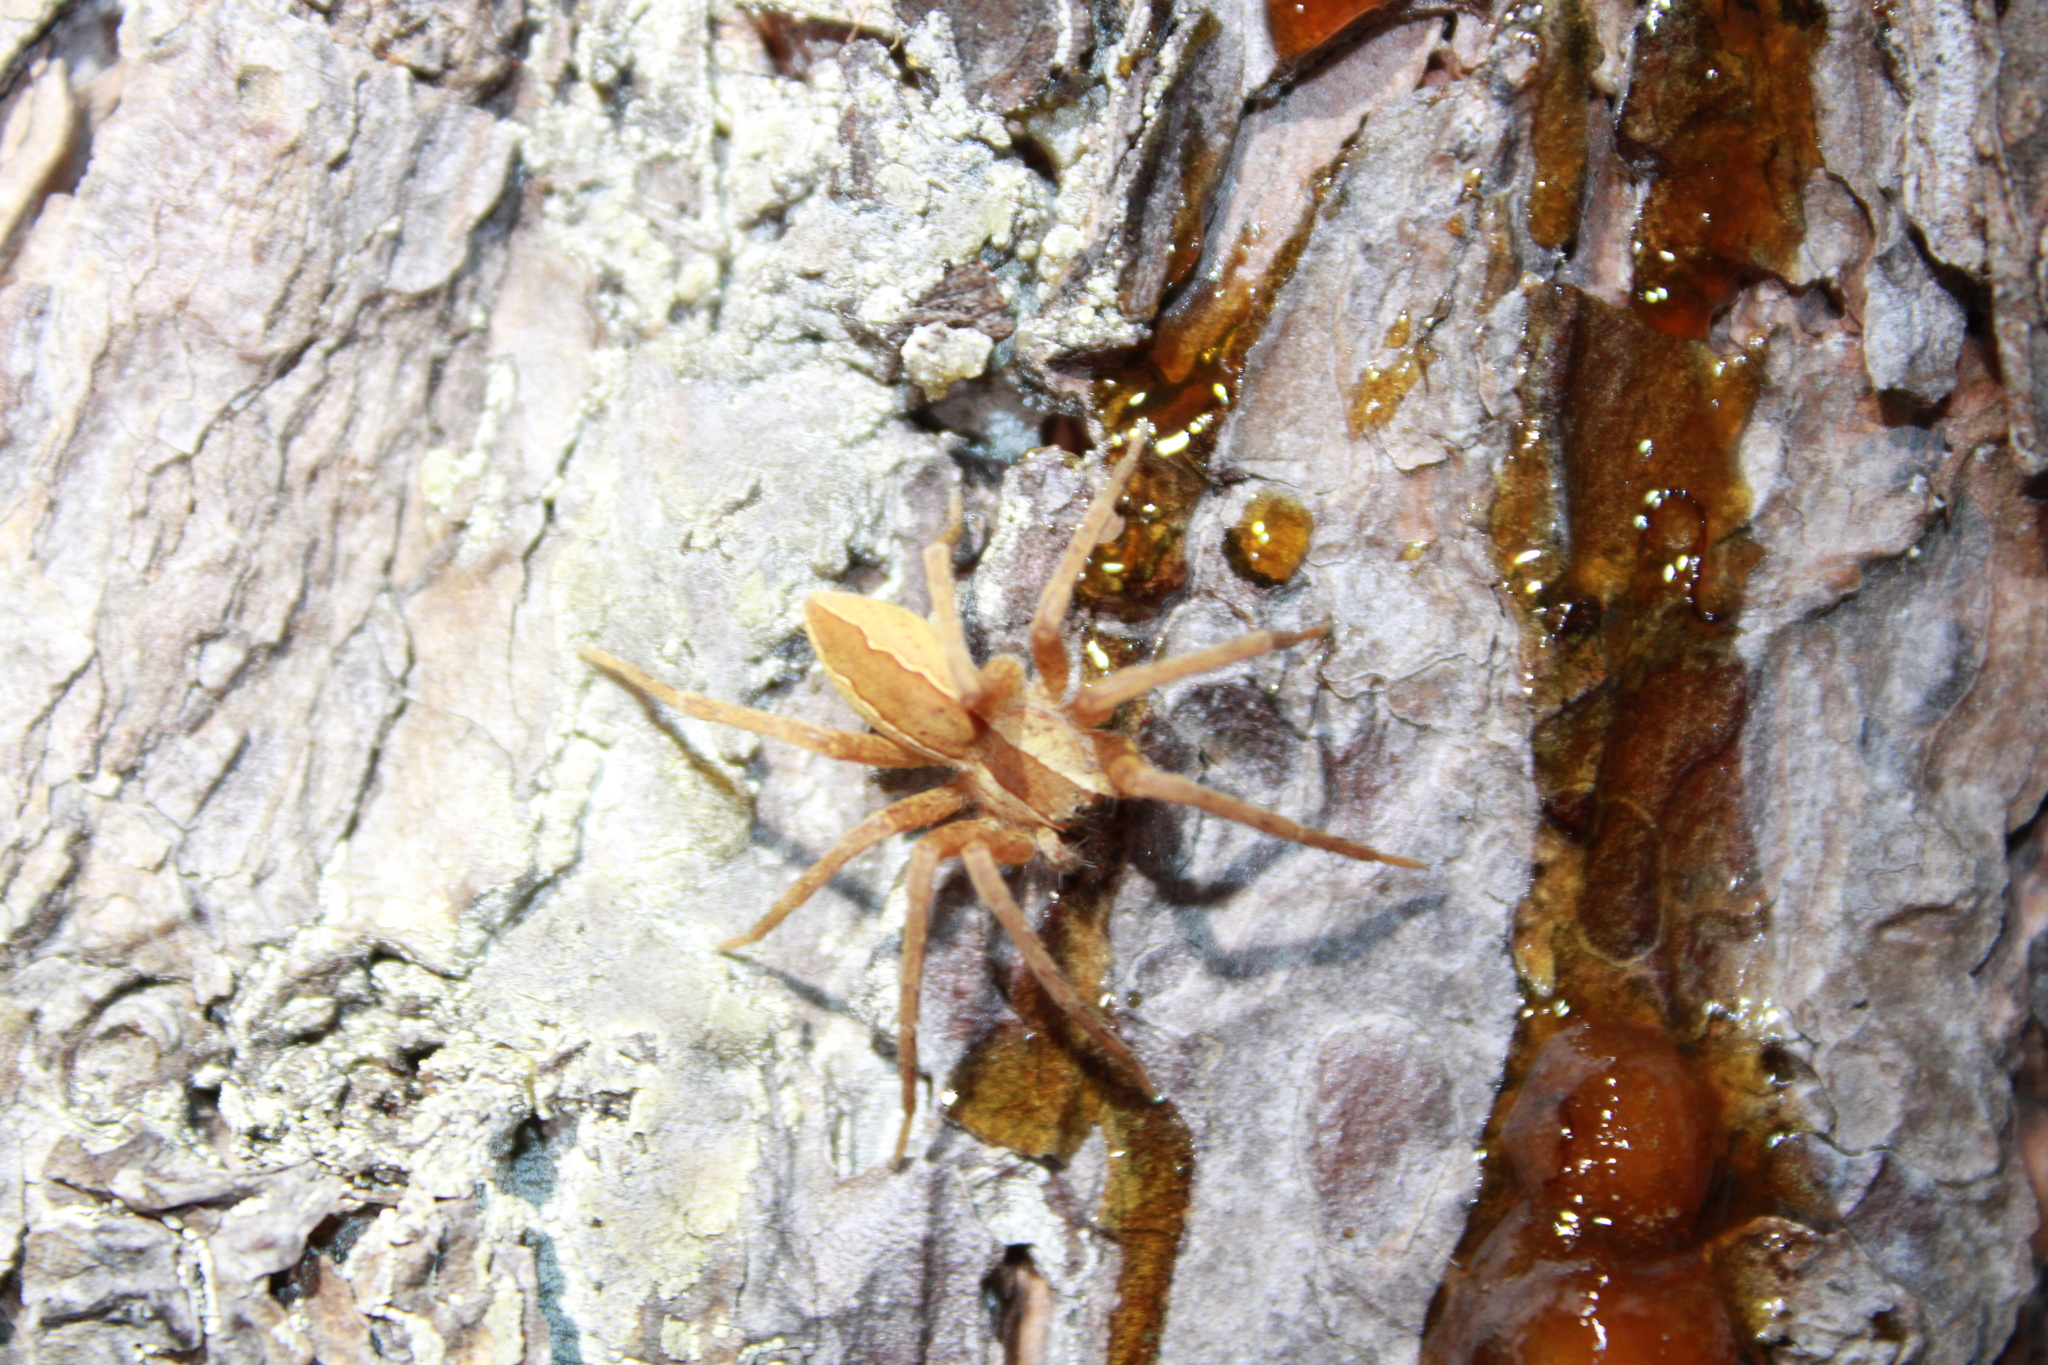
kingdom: Animalia
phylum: Arthropoda
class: Arachnida
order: Araneae
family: Pisauridae
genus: Pisaurina
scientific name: Pisaurina mira
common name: American nursery web spider
